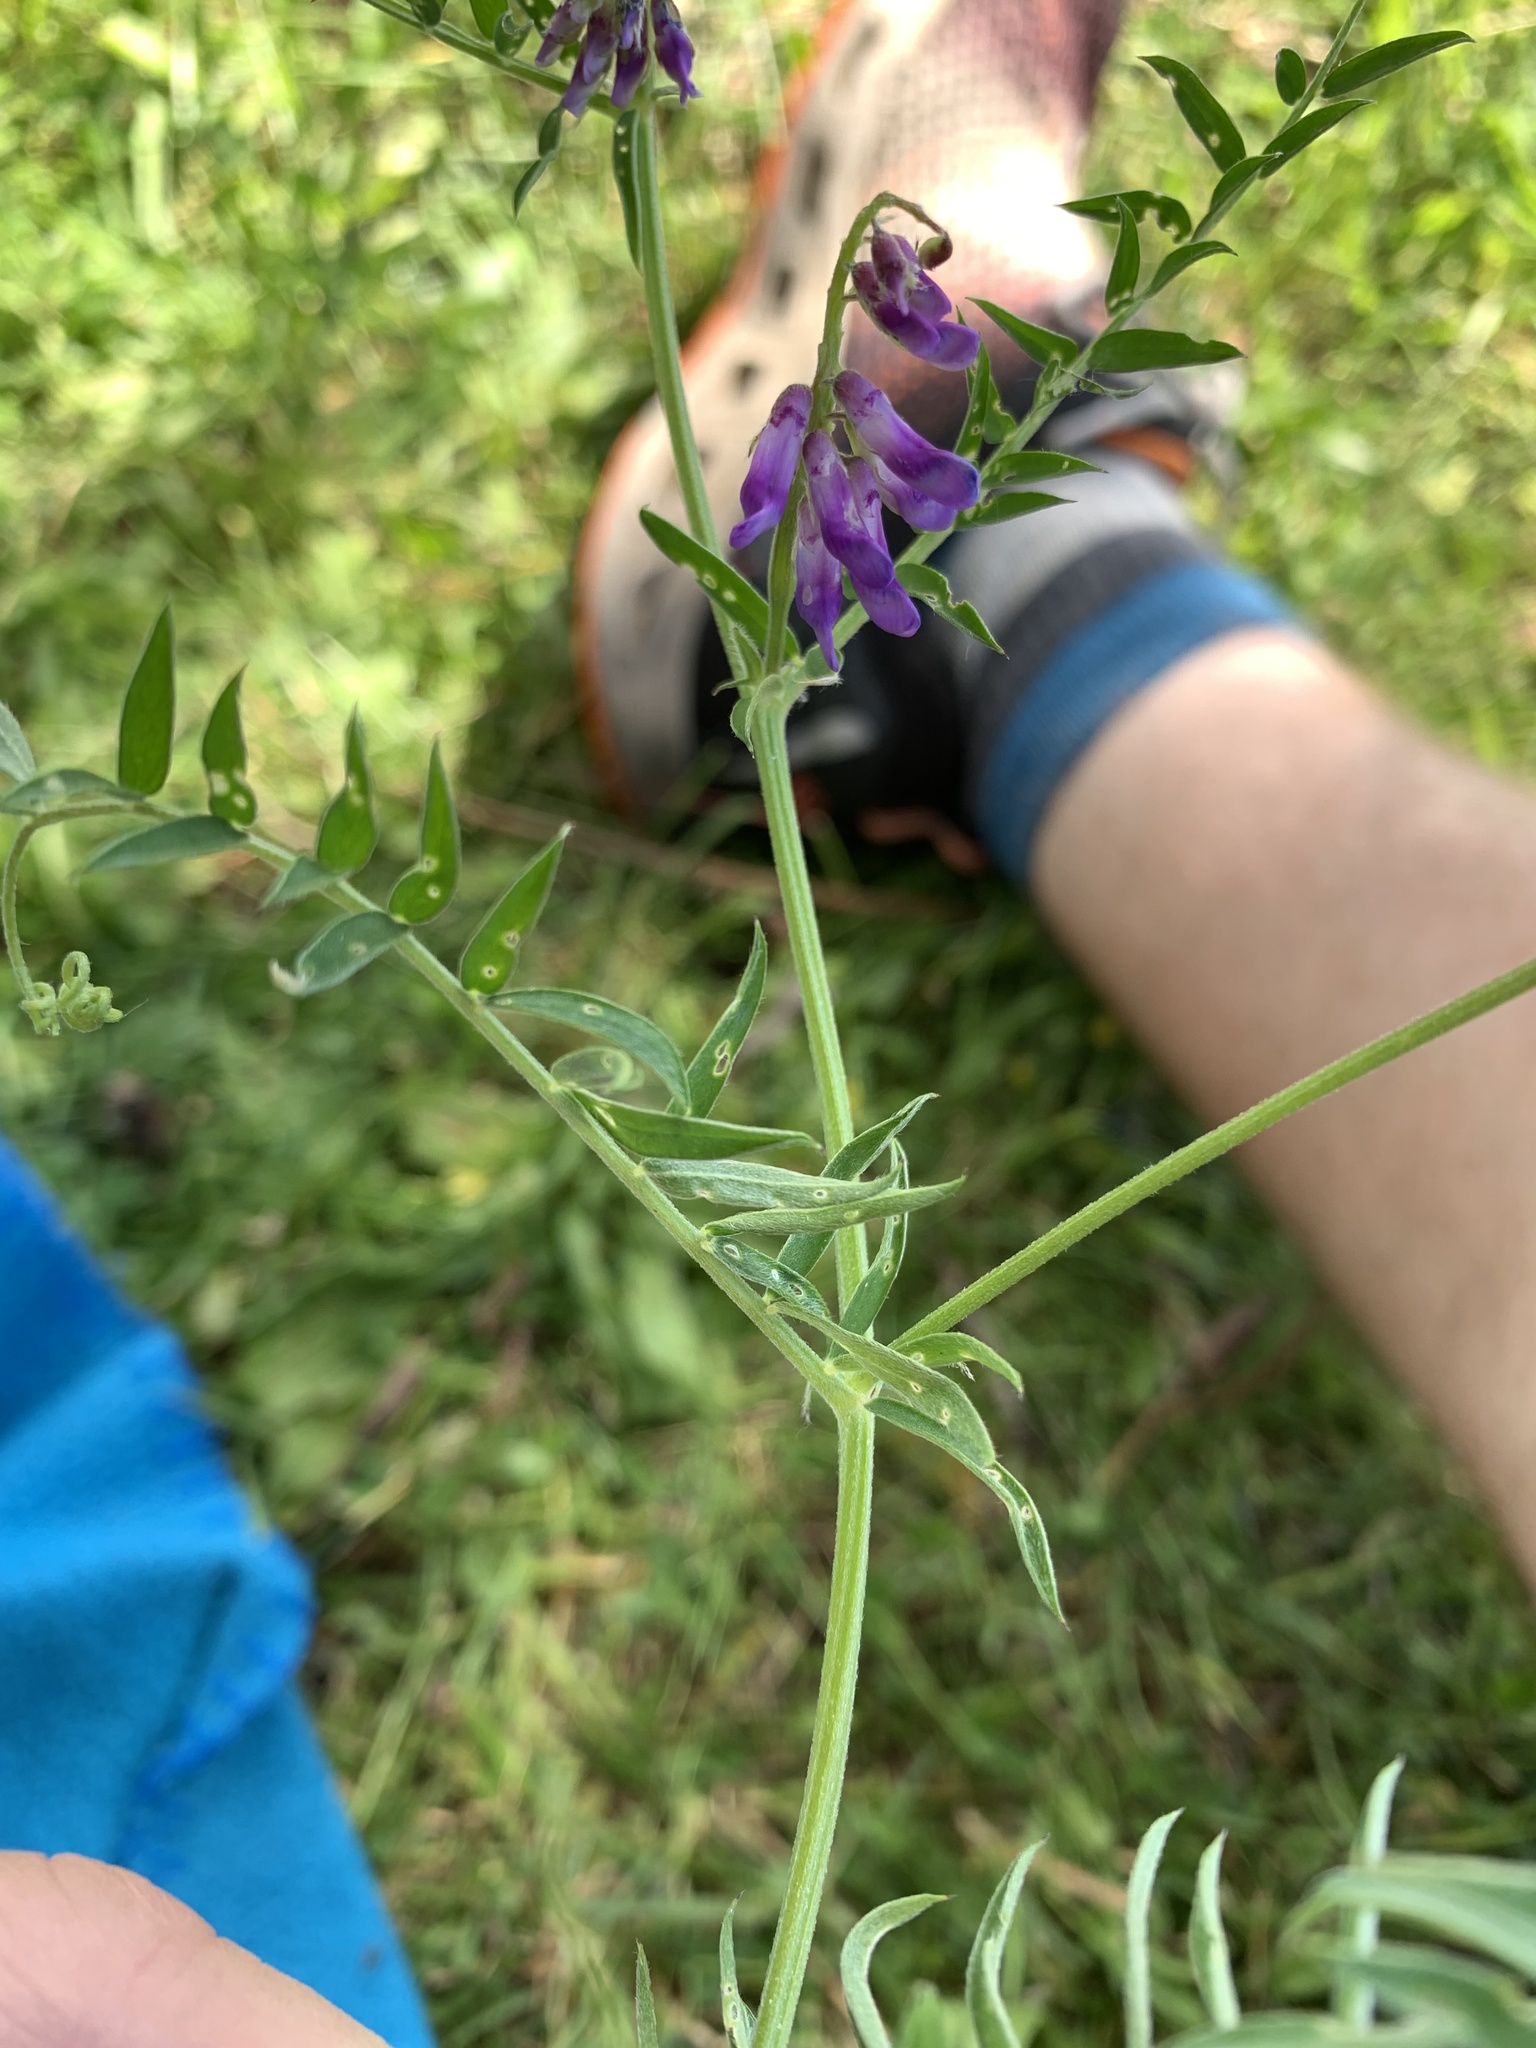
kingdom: Plantae
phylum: Tracheophyta
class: Magnoliopsida
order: Fabales
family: Fabaceae
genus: Vicia
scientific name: Vicia cracca
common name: Bird vetch
